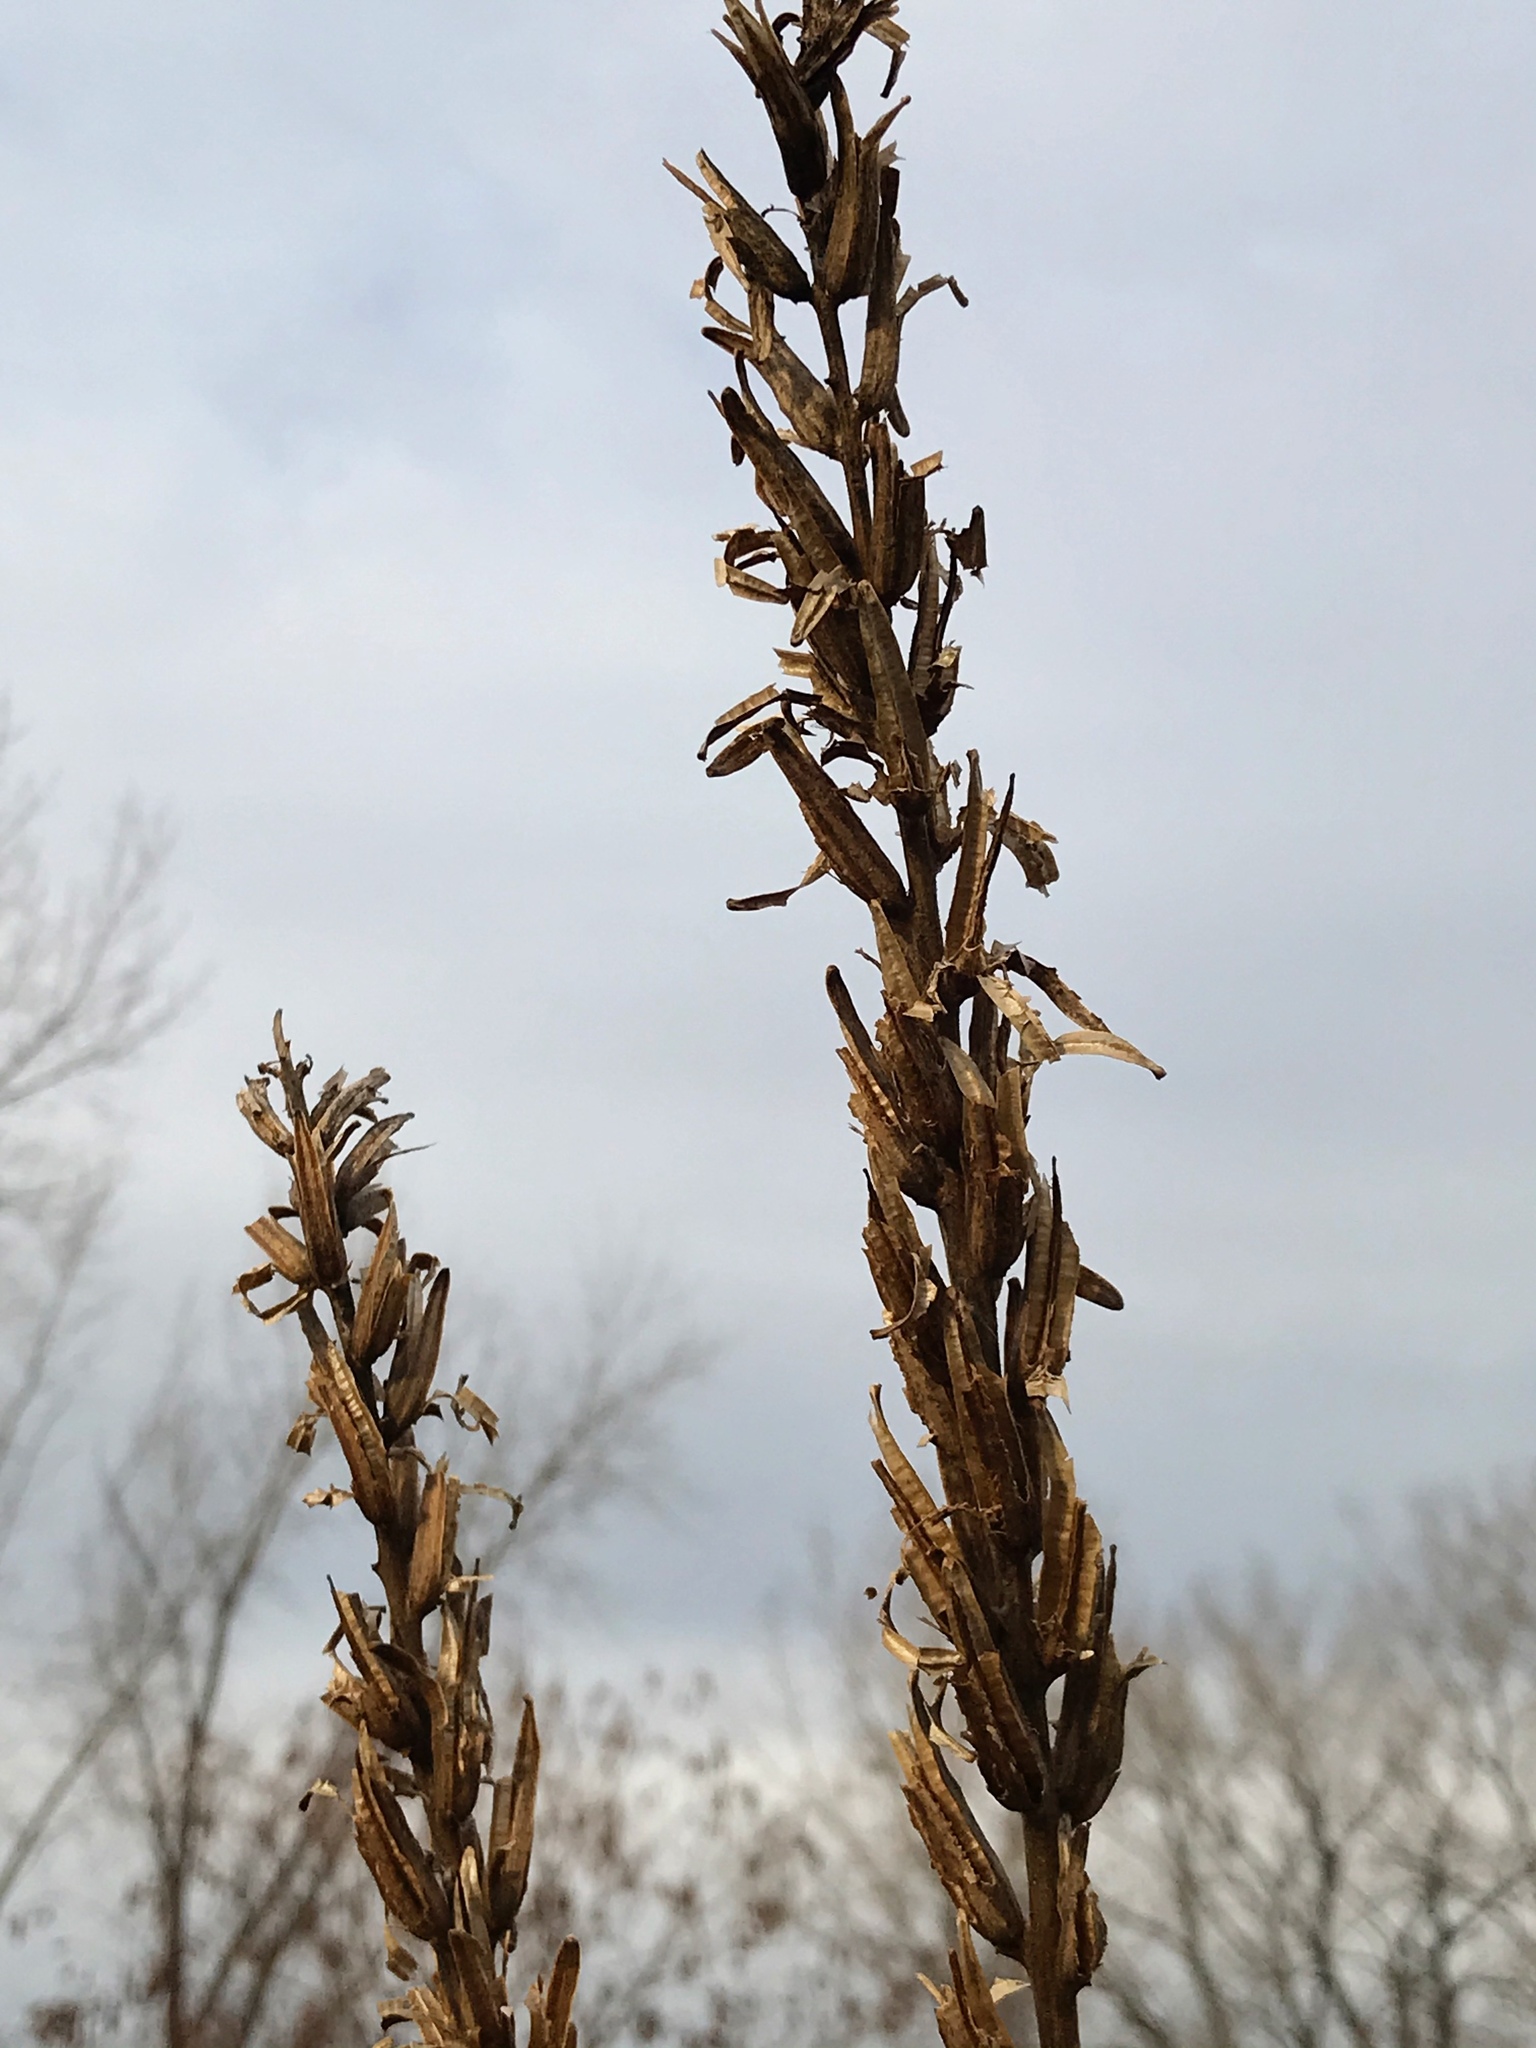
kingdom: Plantae
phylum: Tracheophyta
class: Magnoliopsida
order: Myrtales
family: Onagraceae
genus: Oenothera
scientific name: Oenothera biennis
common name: Common evening-primrose
